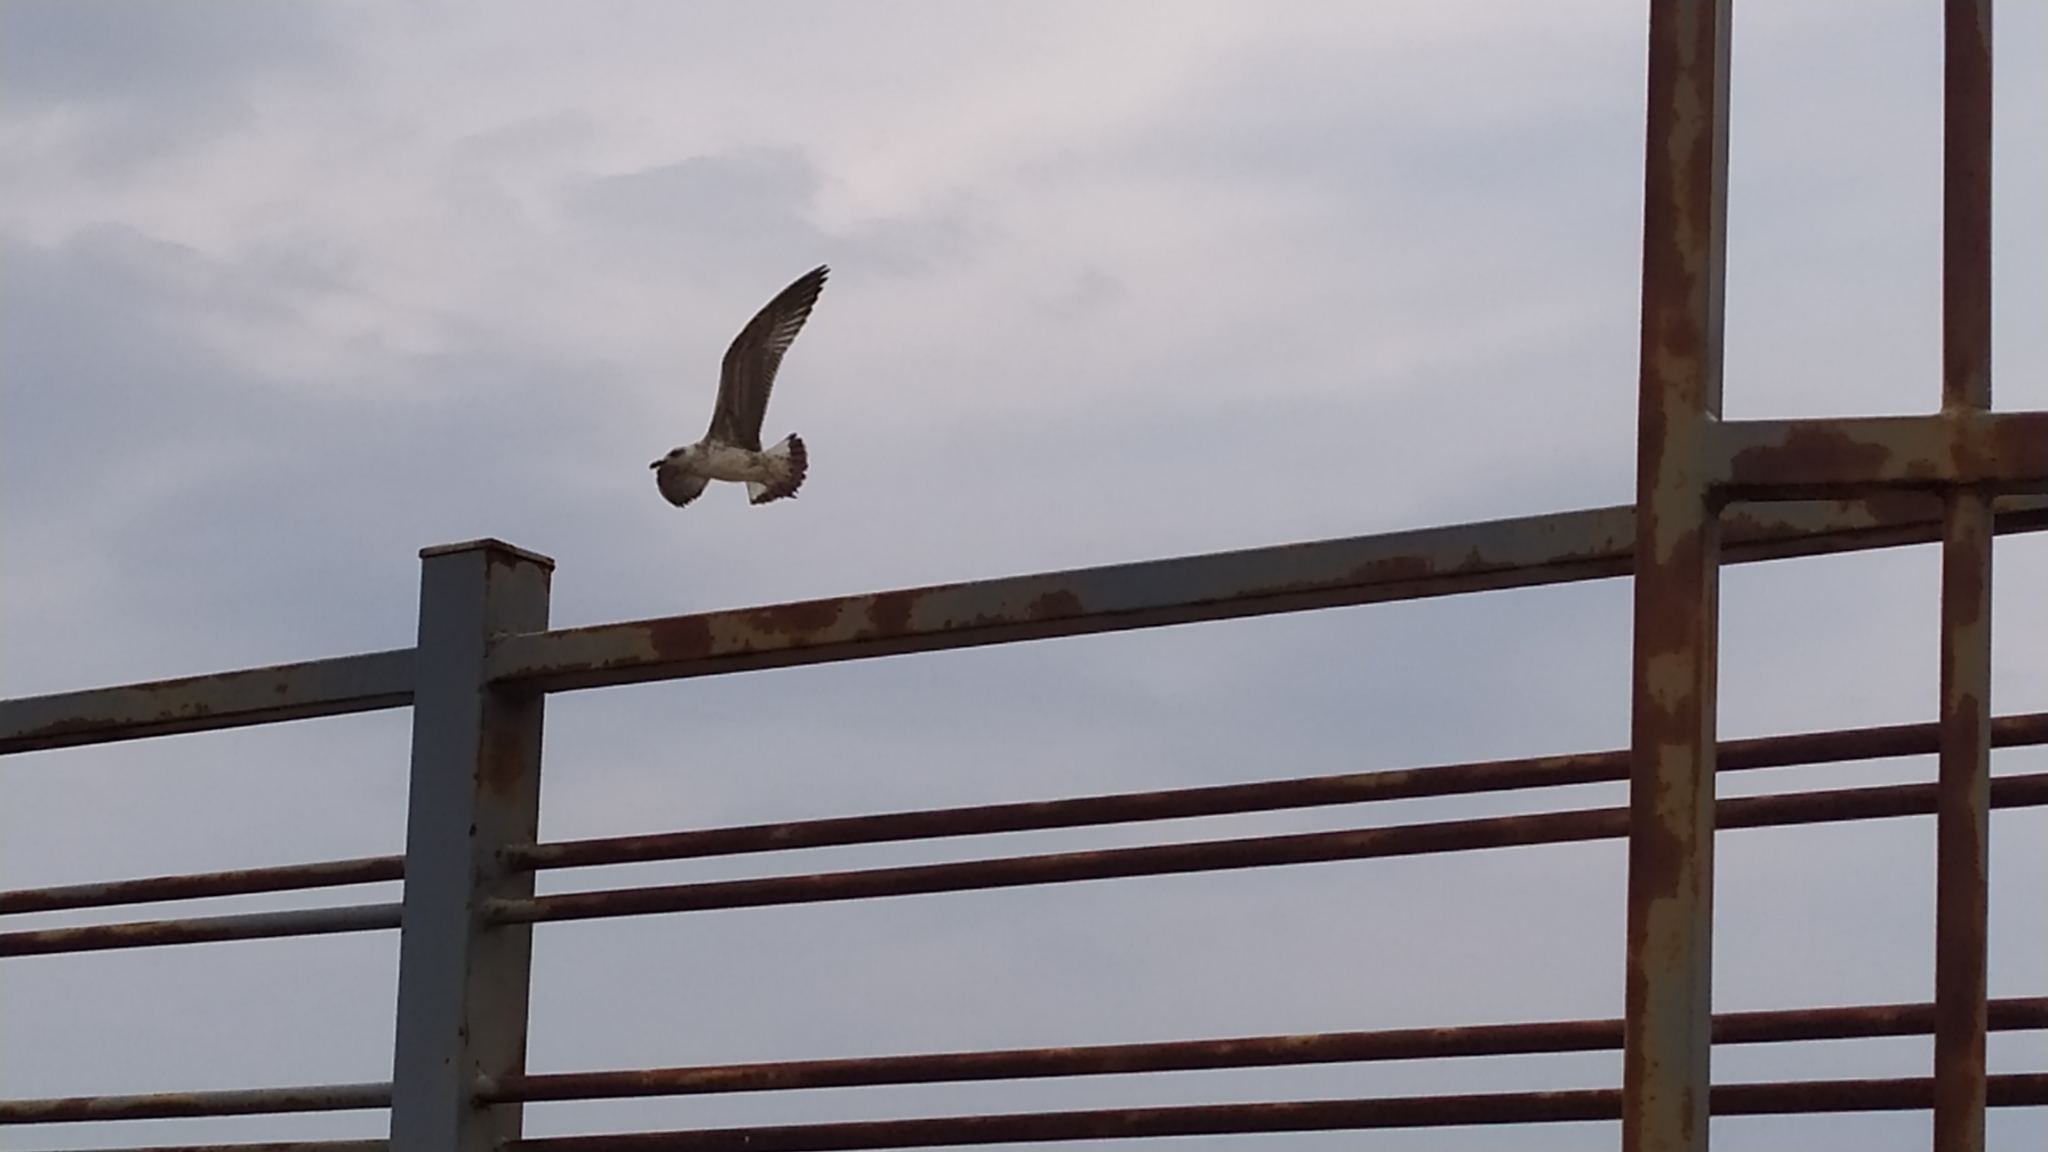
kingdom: Animalia
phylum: Chordata
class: Aves
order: Charadriiformes
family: Laridae
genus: Larus
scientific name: Larus michahellis
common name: Yellow-legged gull
